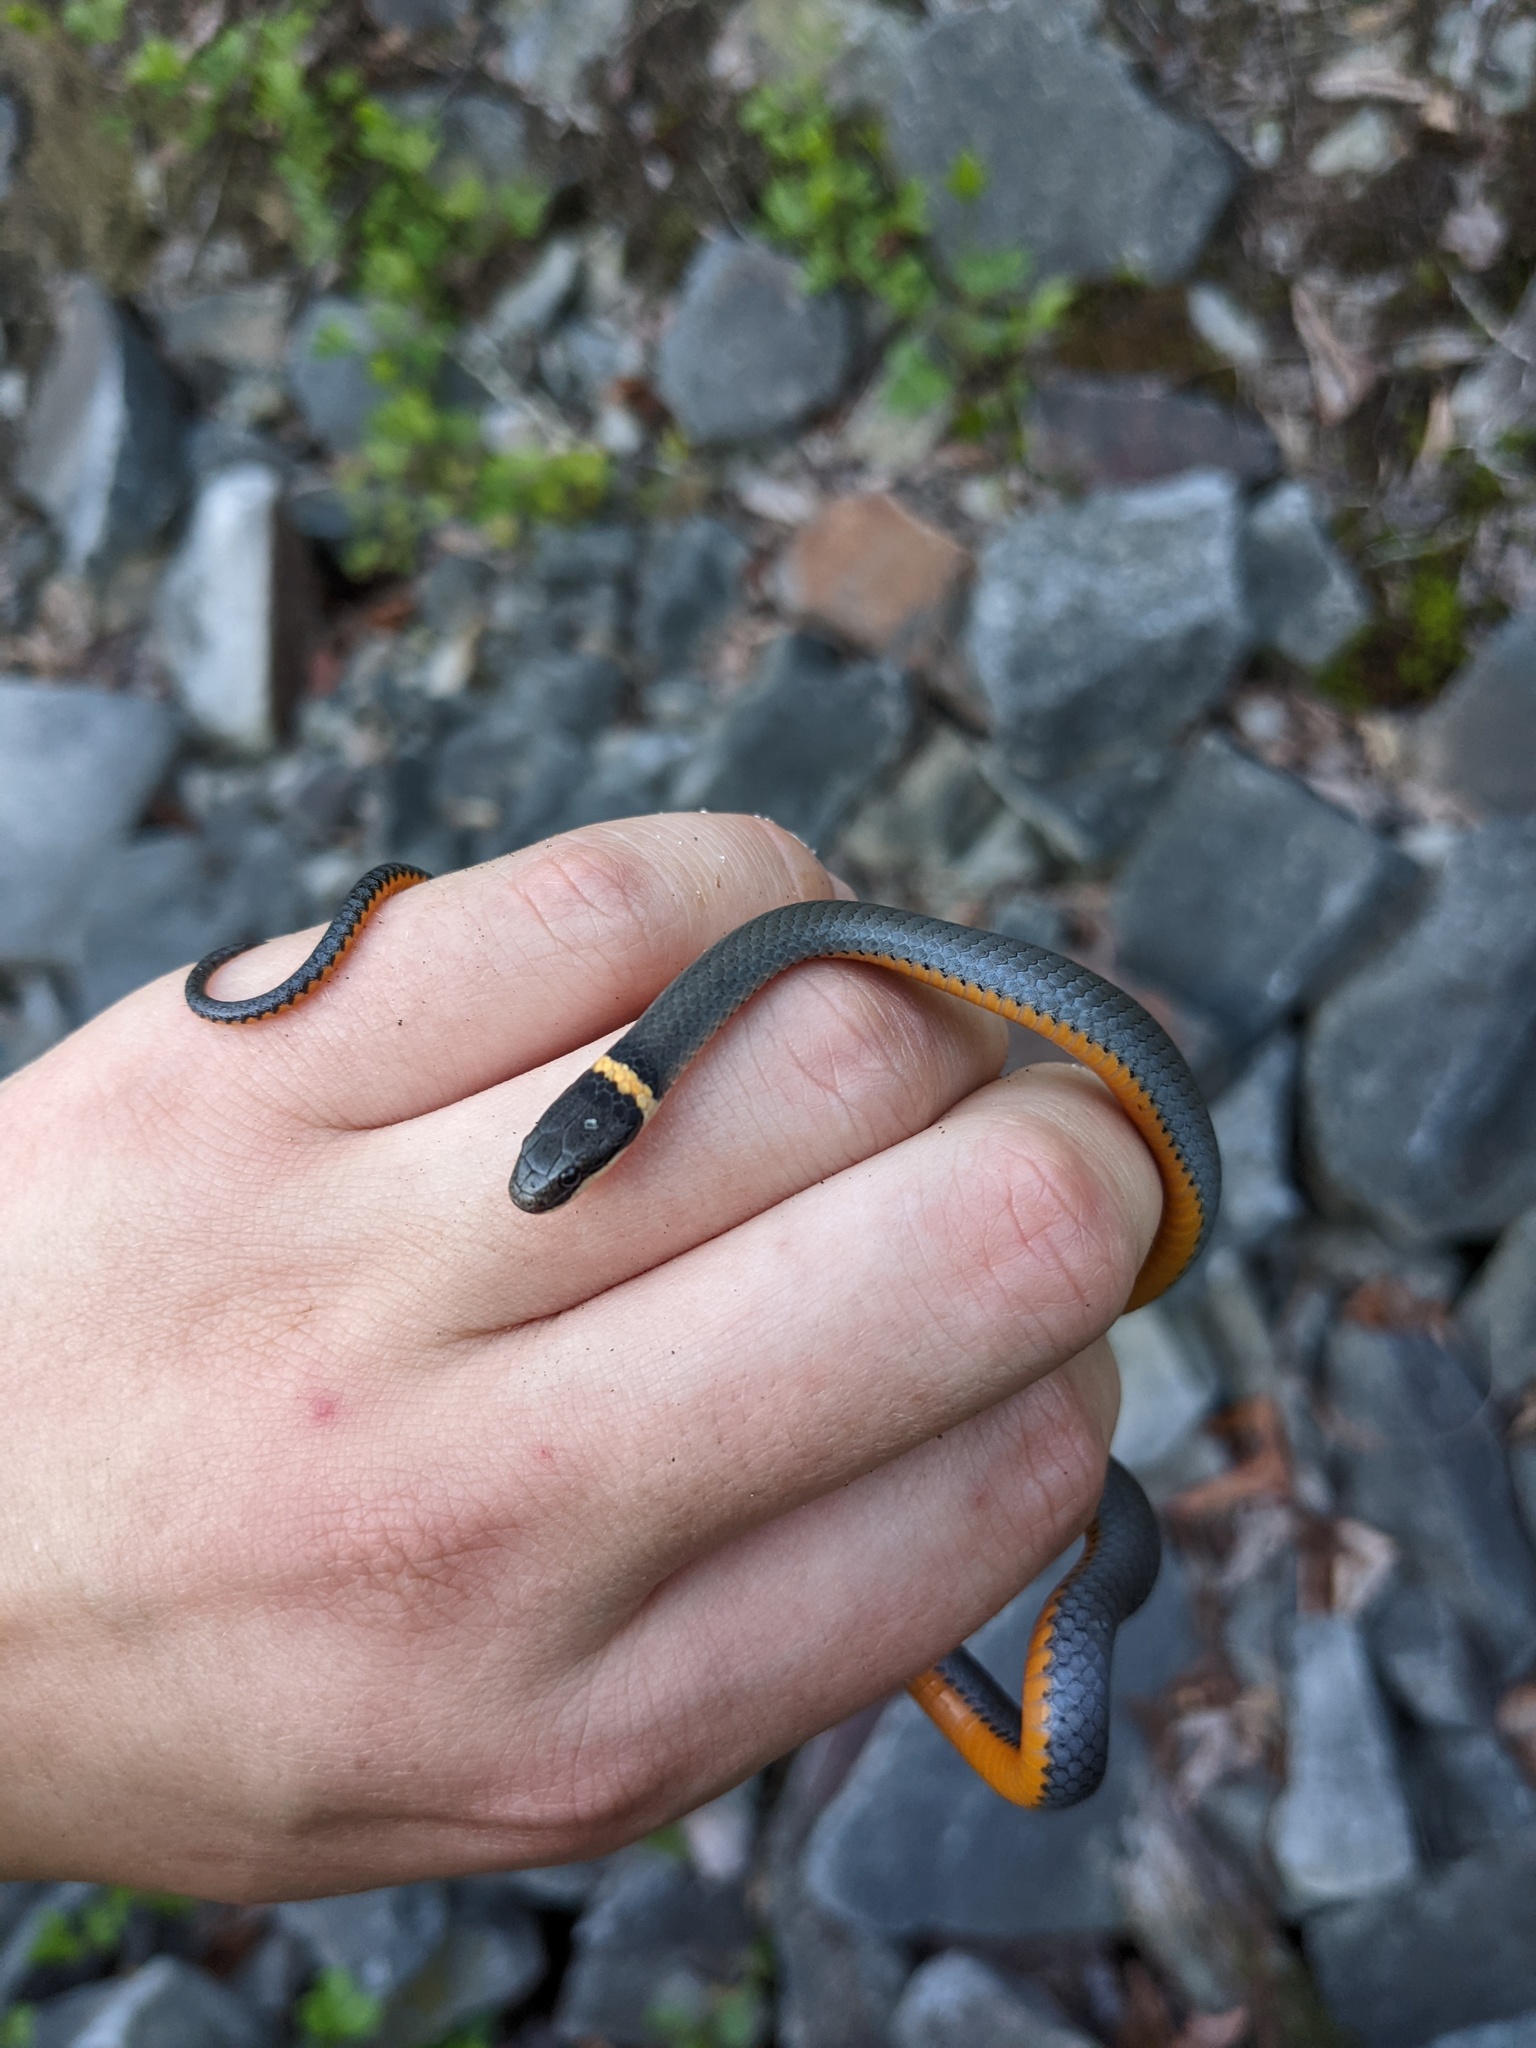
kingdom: Animalia
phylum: Chordata
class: Squamata
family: Colubridae
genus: Diadophis
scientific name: Diadophis punctatus
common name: Ringneck snake
